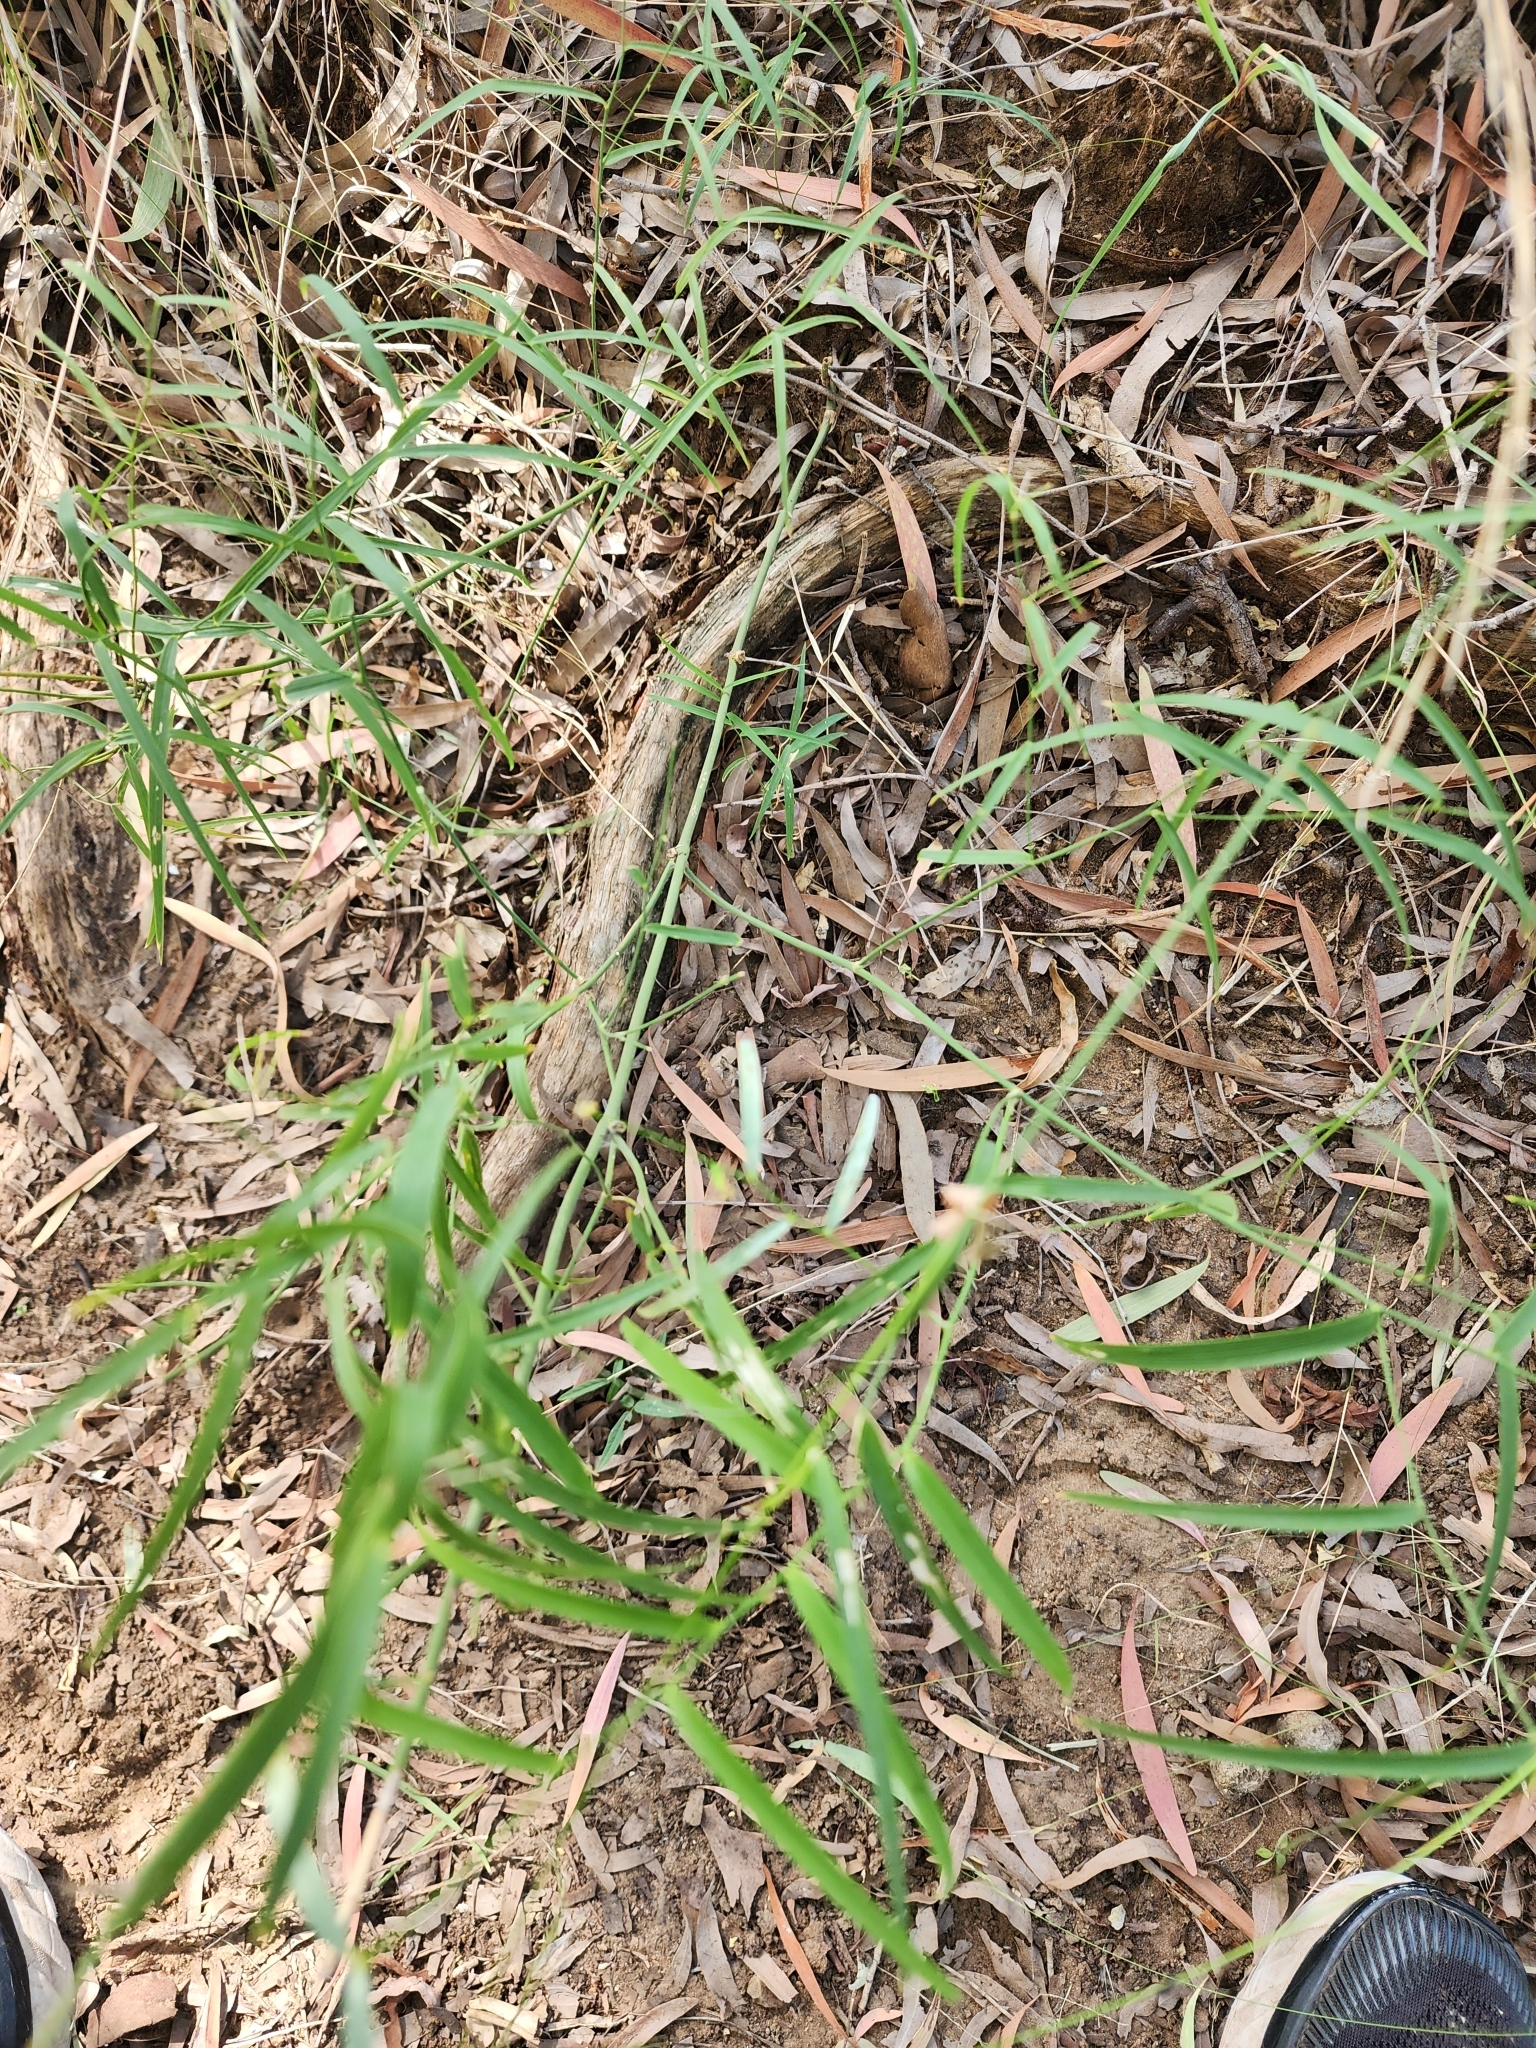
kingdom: Plantae
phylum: Tracheophyta
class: Liliopsida
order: Asparagales
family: Asparagaceae
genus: Eustrephus
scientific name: Eustrephus latifolius
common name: Orangevine
